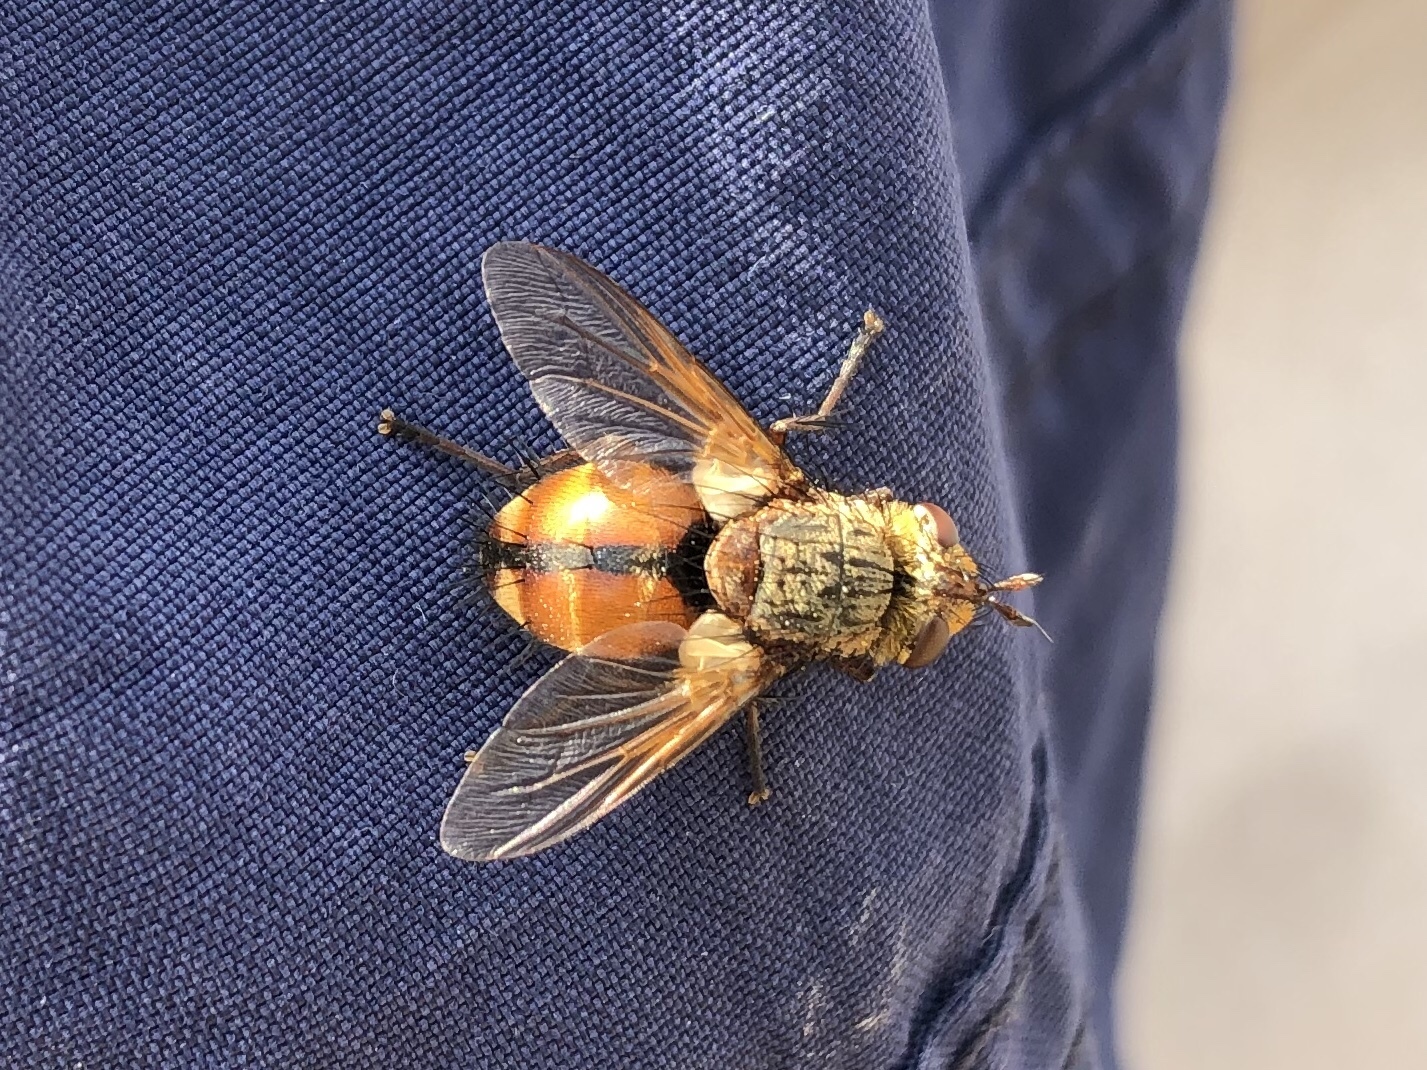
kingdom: Animalia
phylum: Arthropoda
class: Insecta
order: Diptera
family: Tachinidae
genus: Tachina
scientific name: Tachina fera
